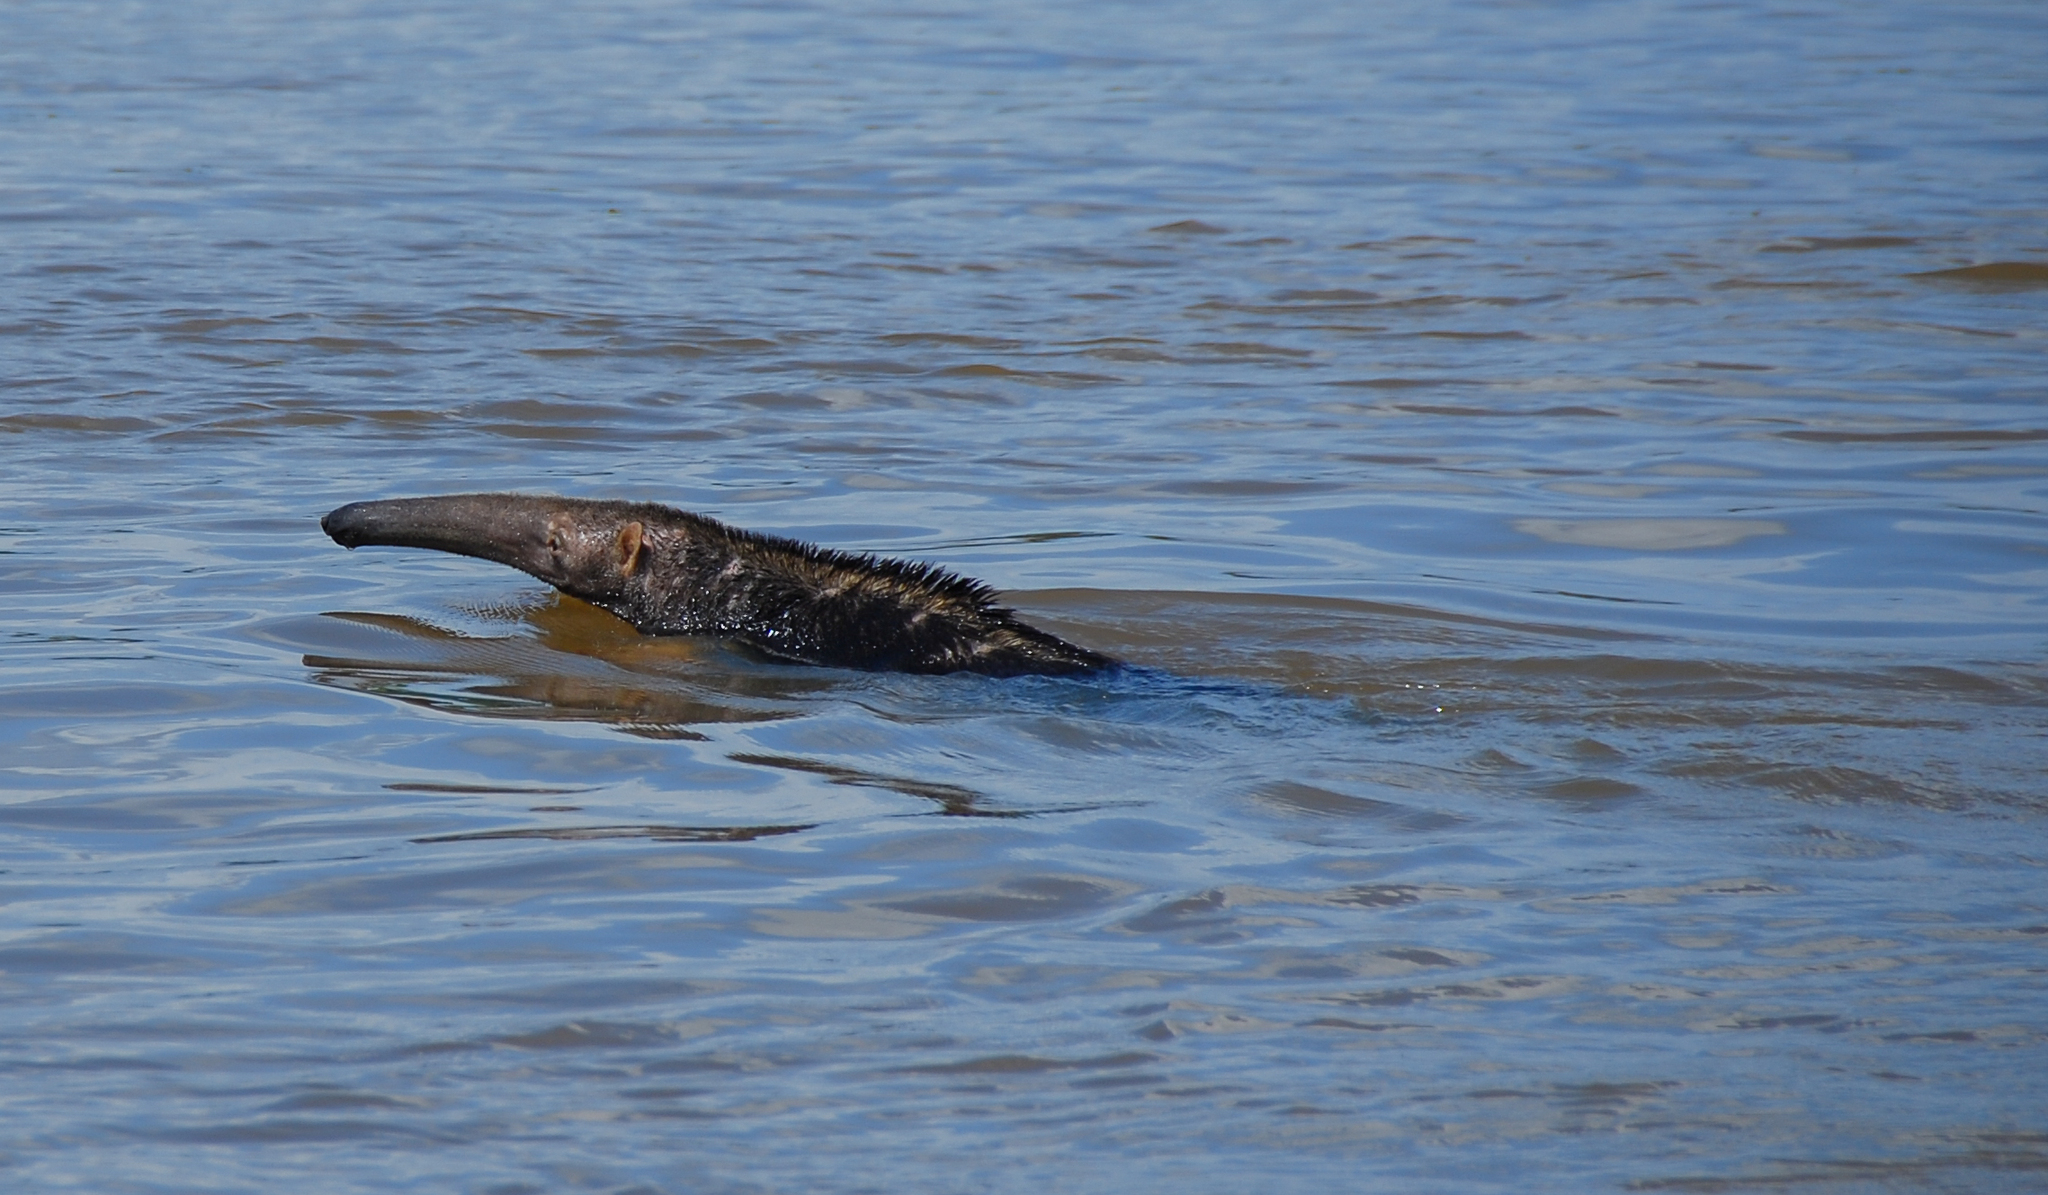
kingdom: Animalia
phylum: Chordata
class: Mammalia
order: Pilosa
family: Myrmecophagidae
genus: Myrmecophaga
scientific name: Myrmecophaga tridactyla
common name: Giant anteater
